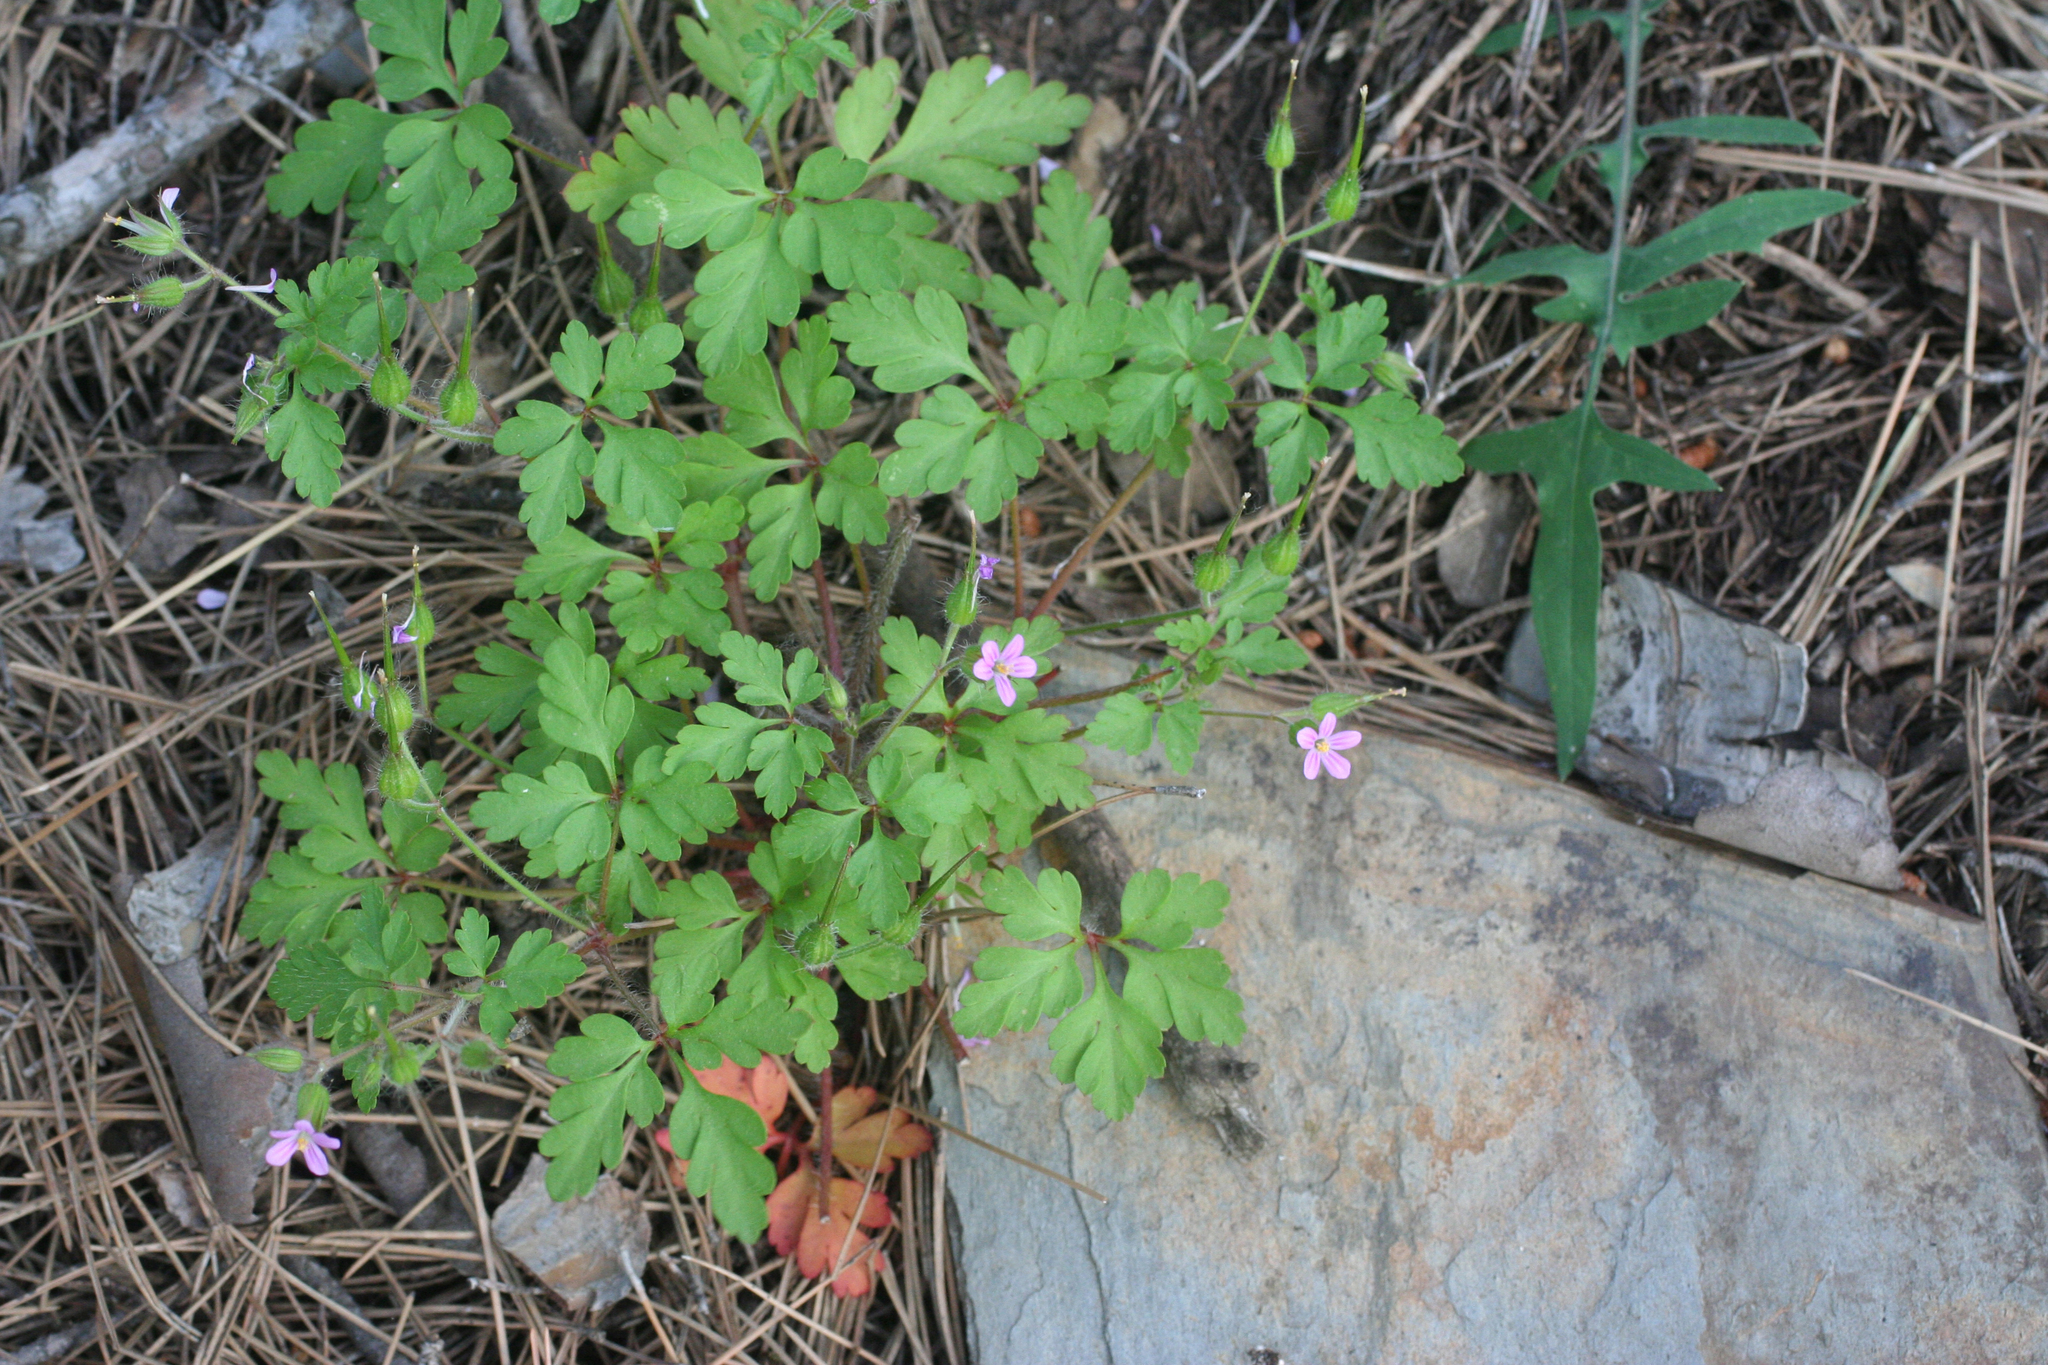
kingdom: Plantae
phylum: Tracheophyta
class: Magnoliopsida
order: Geraniales
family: Geraniaceae
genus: Geranium
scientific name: Geranium purpureum
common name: Little-robin
